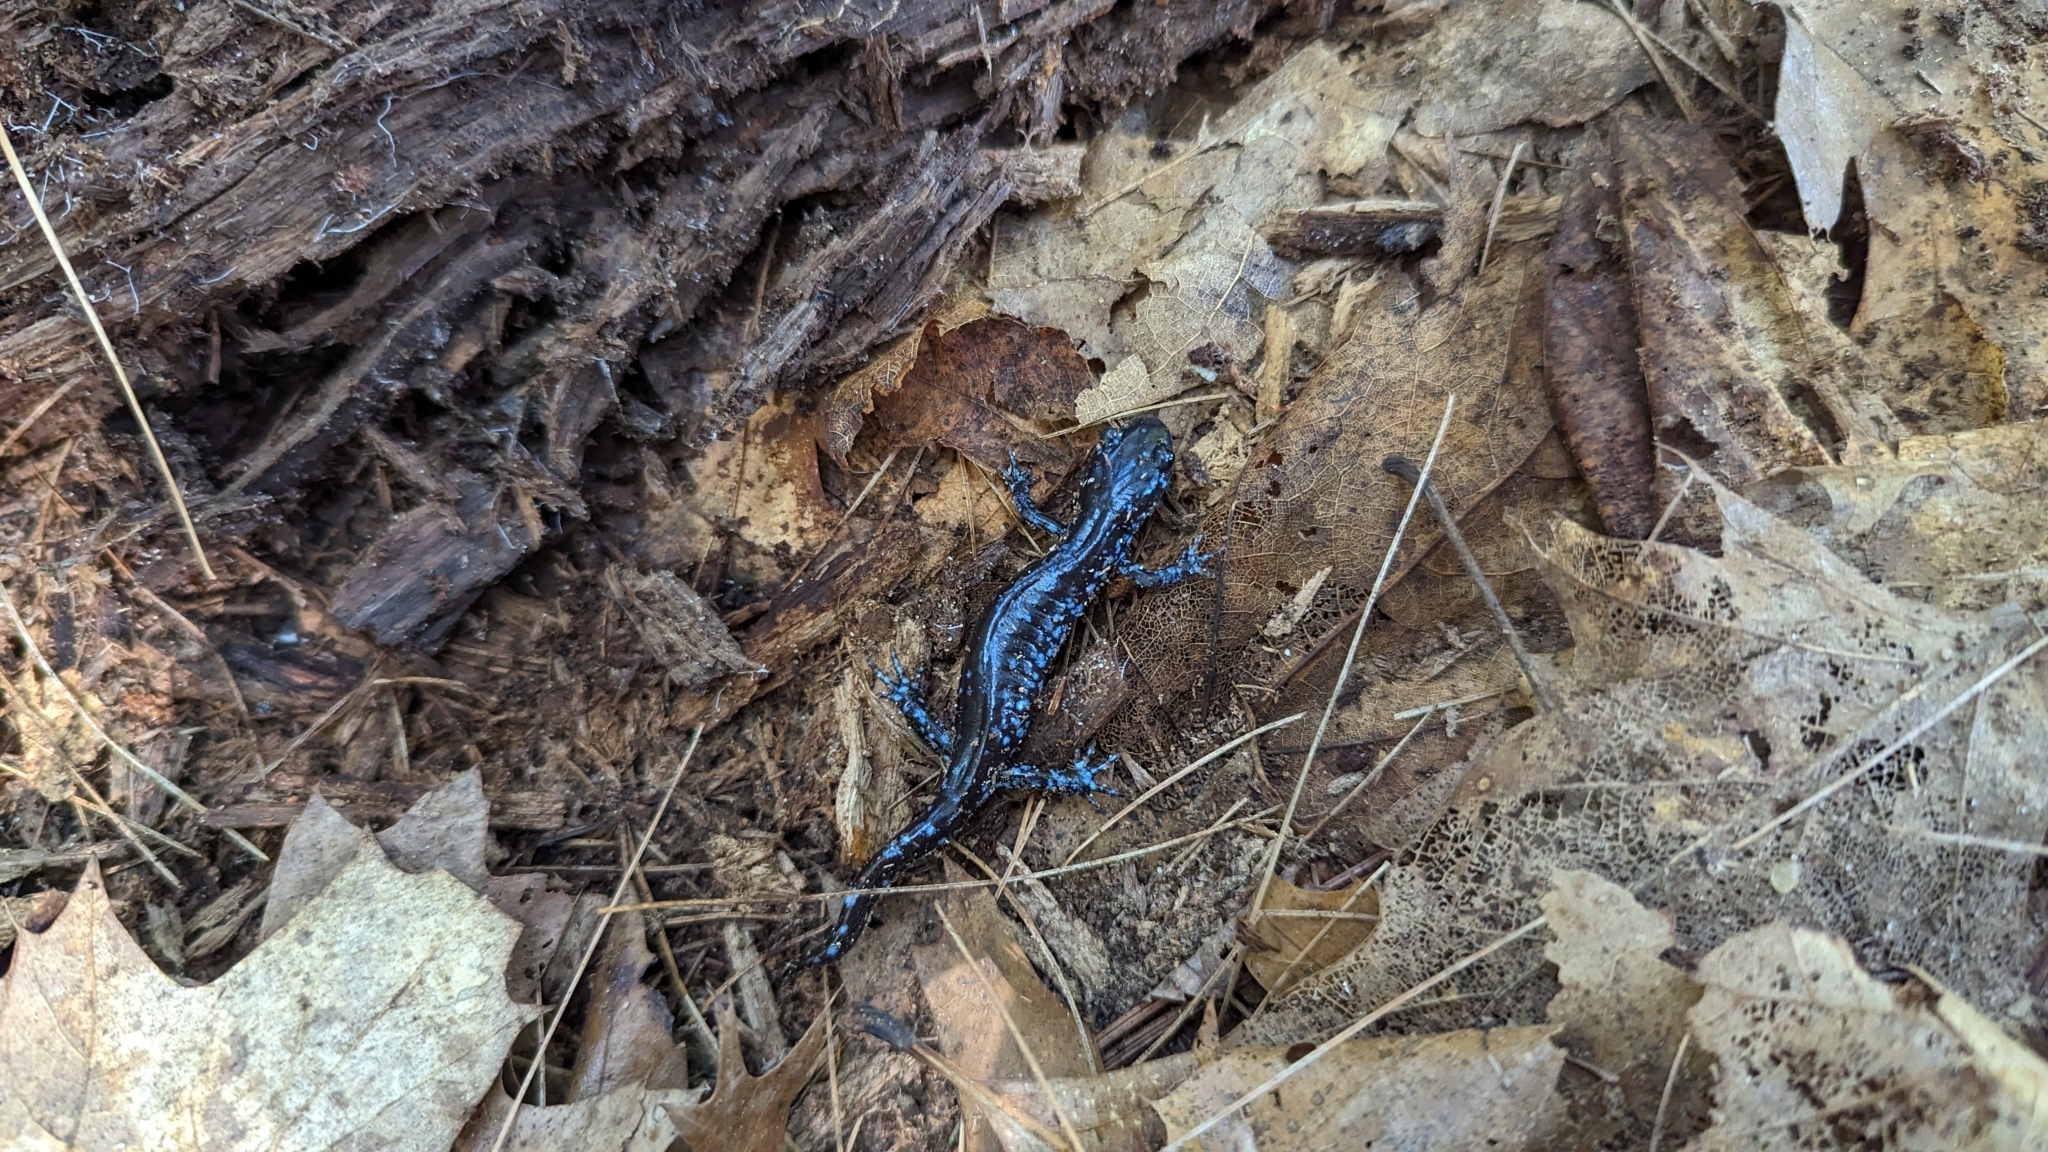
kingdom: Animalia
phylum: Chordata
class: Amphibia
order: Caudata
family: Ambystomatidae
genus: Ambystoma
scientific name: Ambystoma laterale
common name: Blue-spotted salamander
